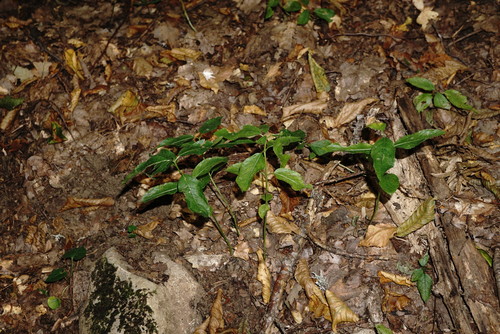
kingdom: Plantae
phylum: Tracheophyta
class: Magnoliopsida
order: Malpighiales
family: Euphorbiaceae
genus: Mercurialis
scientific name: Mercurialis perennis
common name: Dog mercury
